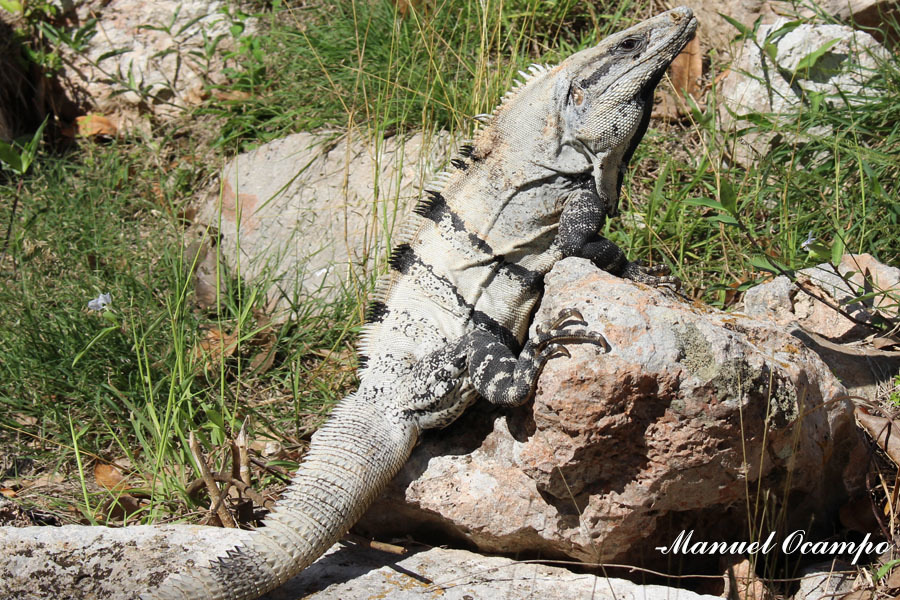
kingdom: Animalia
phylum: Chordata
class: Squamata
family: Iguanidae
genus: Ctenosaura
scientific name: Ctenosaura similis
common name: Black spiny-tailed iguana
